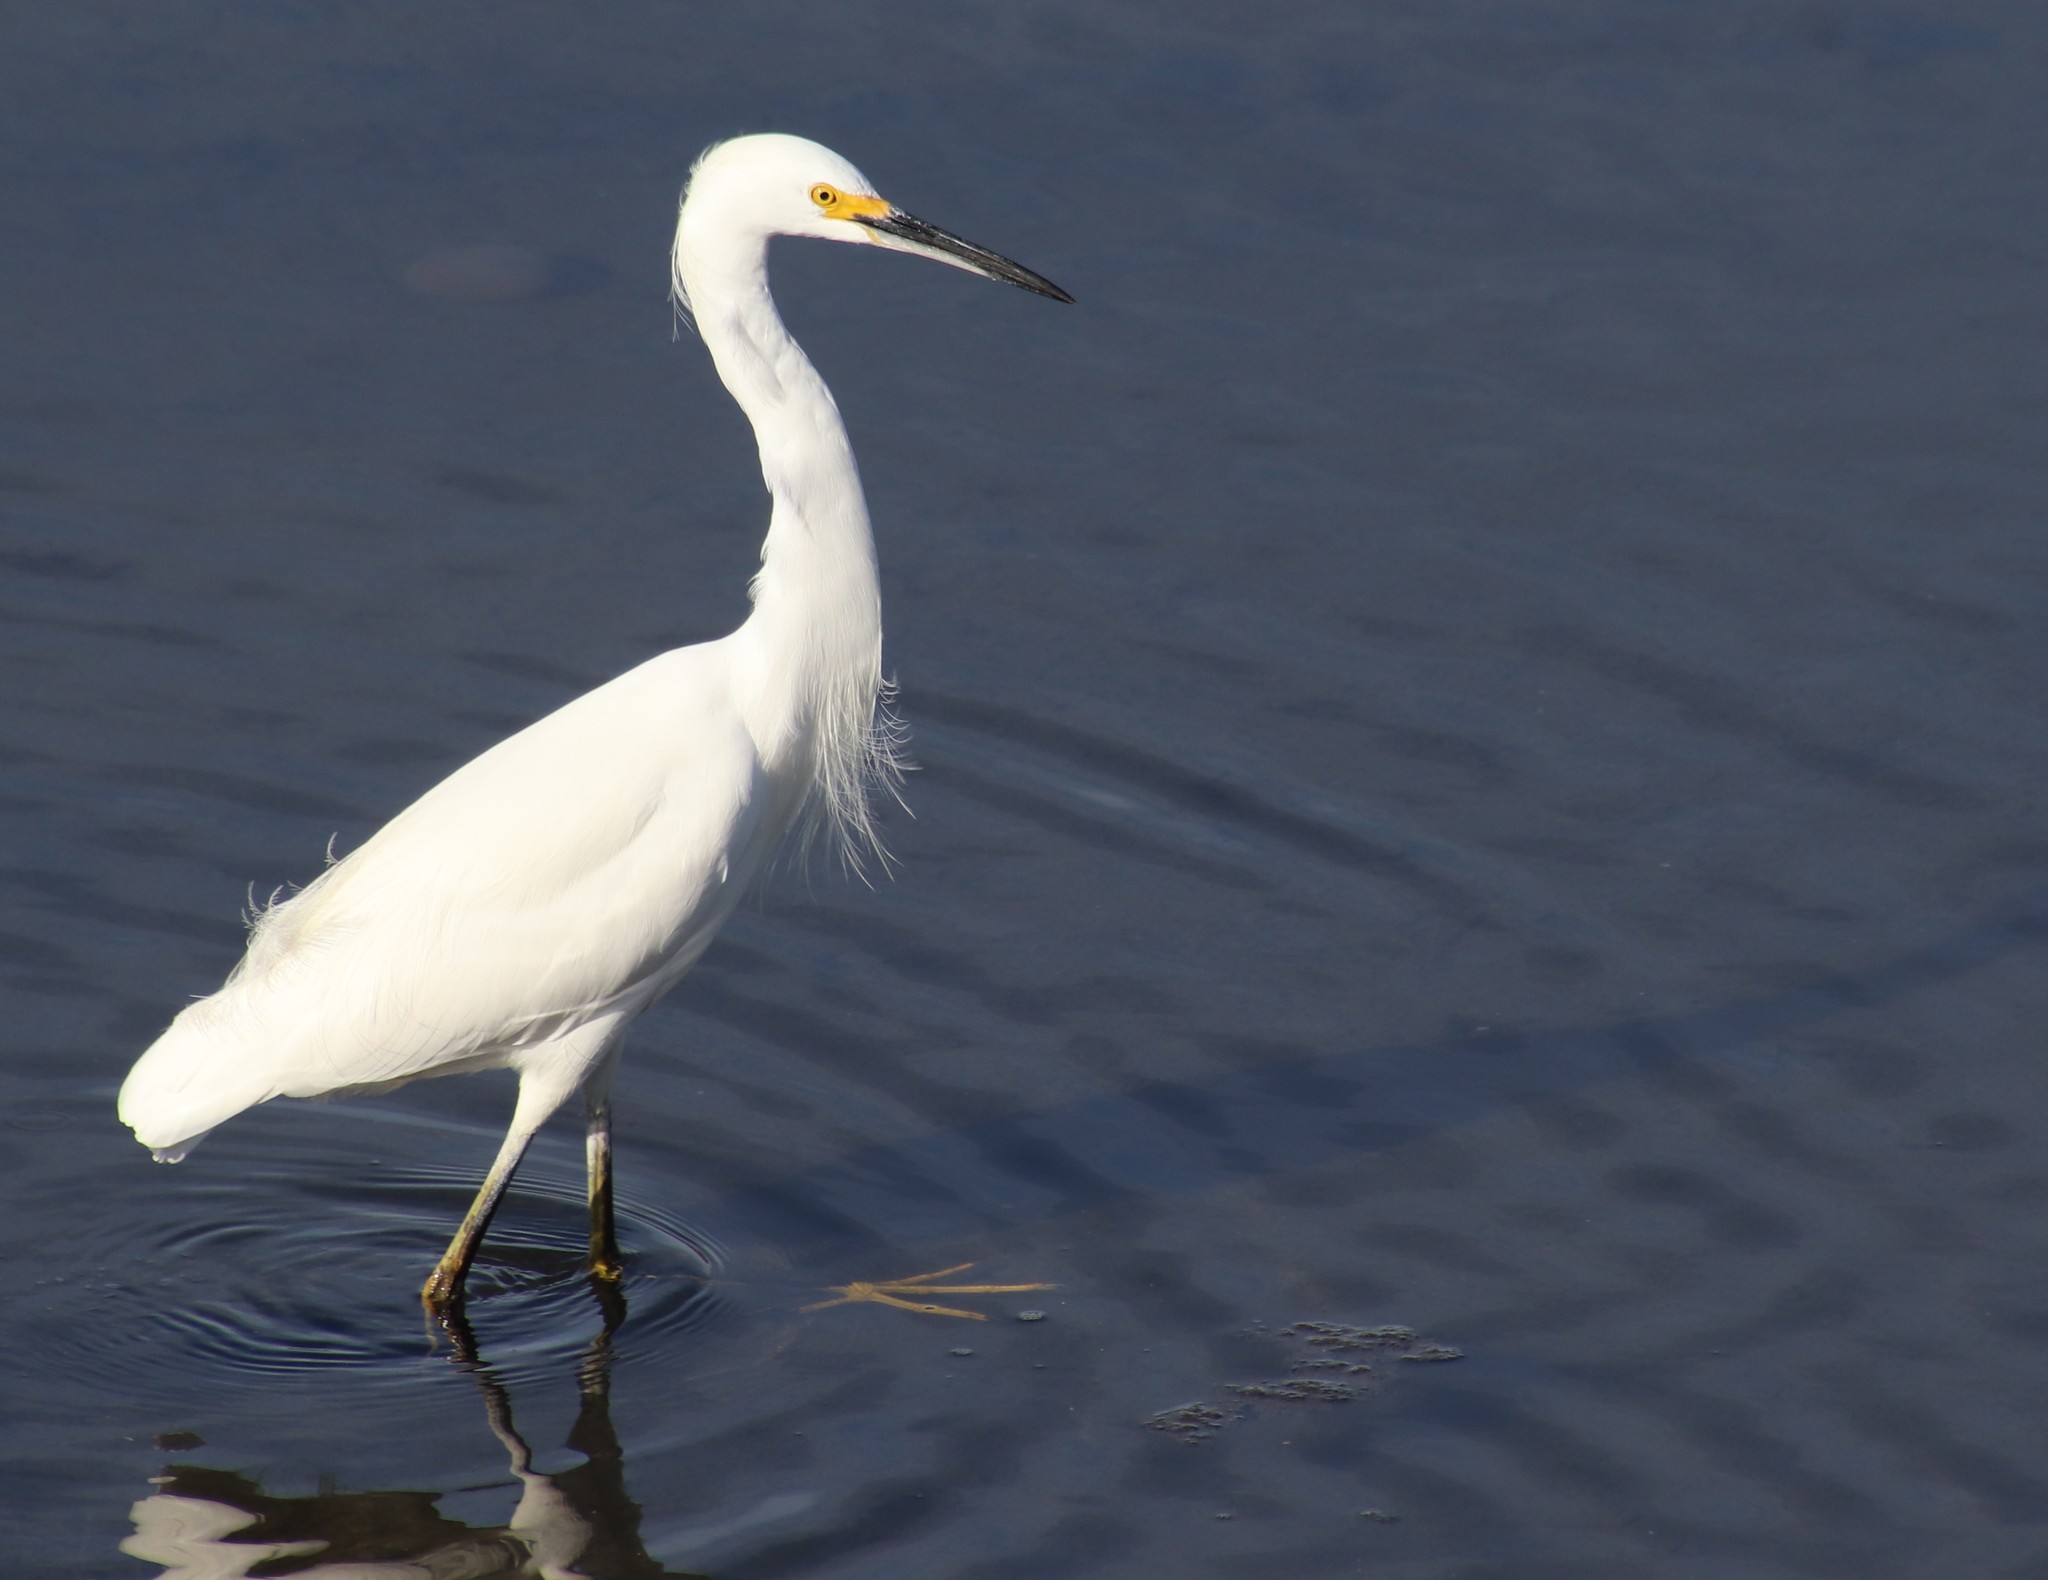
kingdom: Animalia
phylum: Chordata
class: Aves
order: Pelecaniformes
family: Ardeidae
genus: Egretta
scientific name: Egretta thula
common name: Snowy egret
